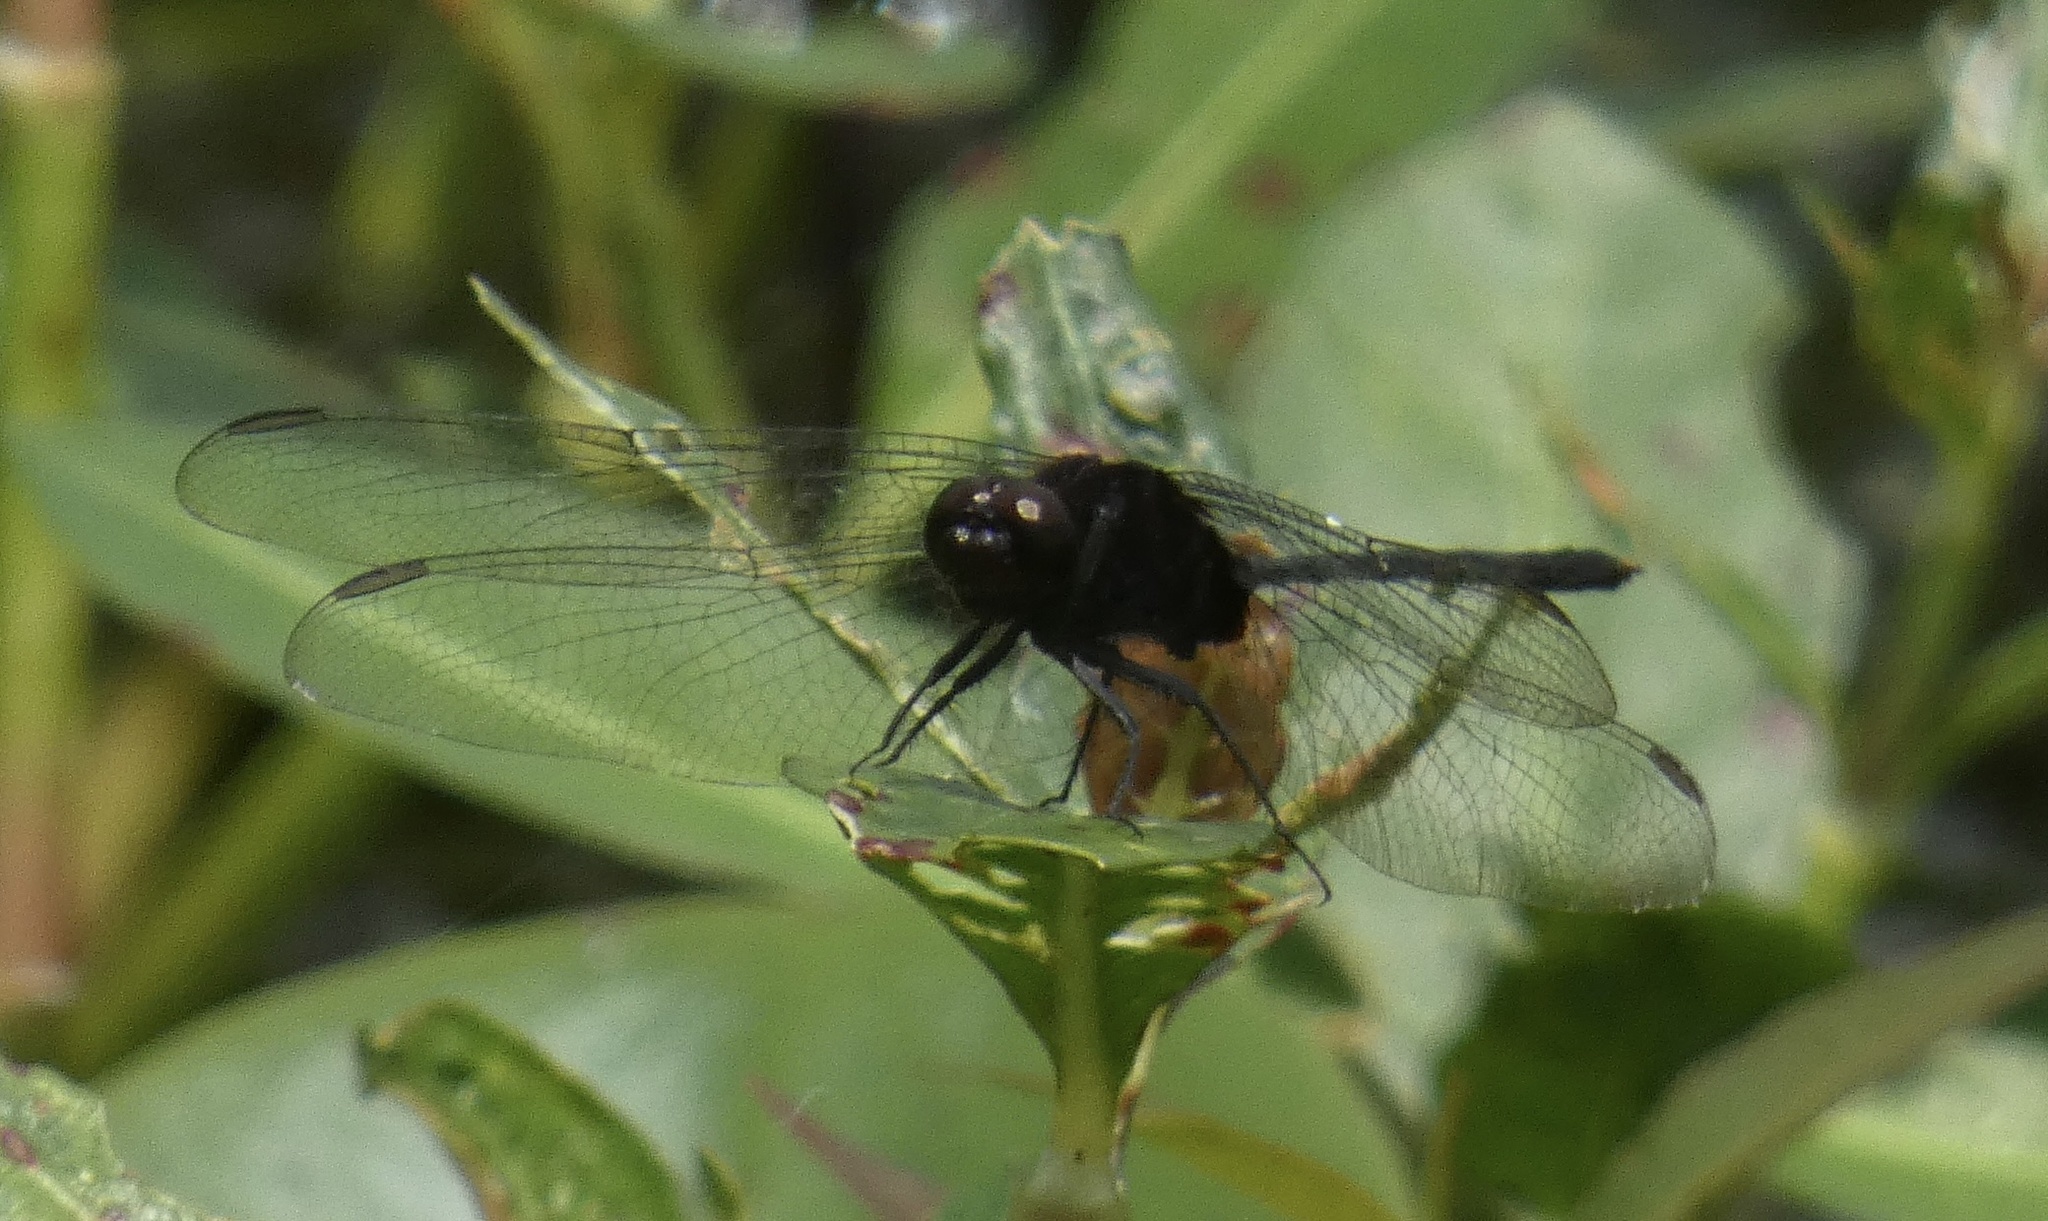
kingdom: Animalia
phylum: Arthropoda
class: Insecta
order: Odonata
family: Libellulidae
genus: Erythemis
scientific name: Erythemis plebeja
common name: Pin-tailed pondhawk
